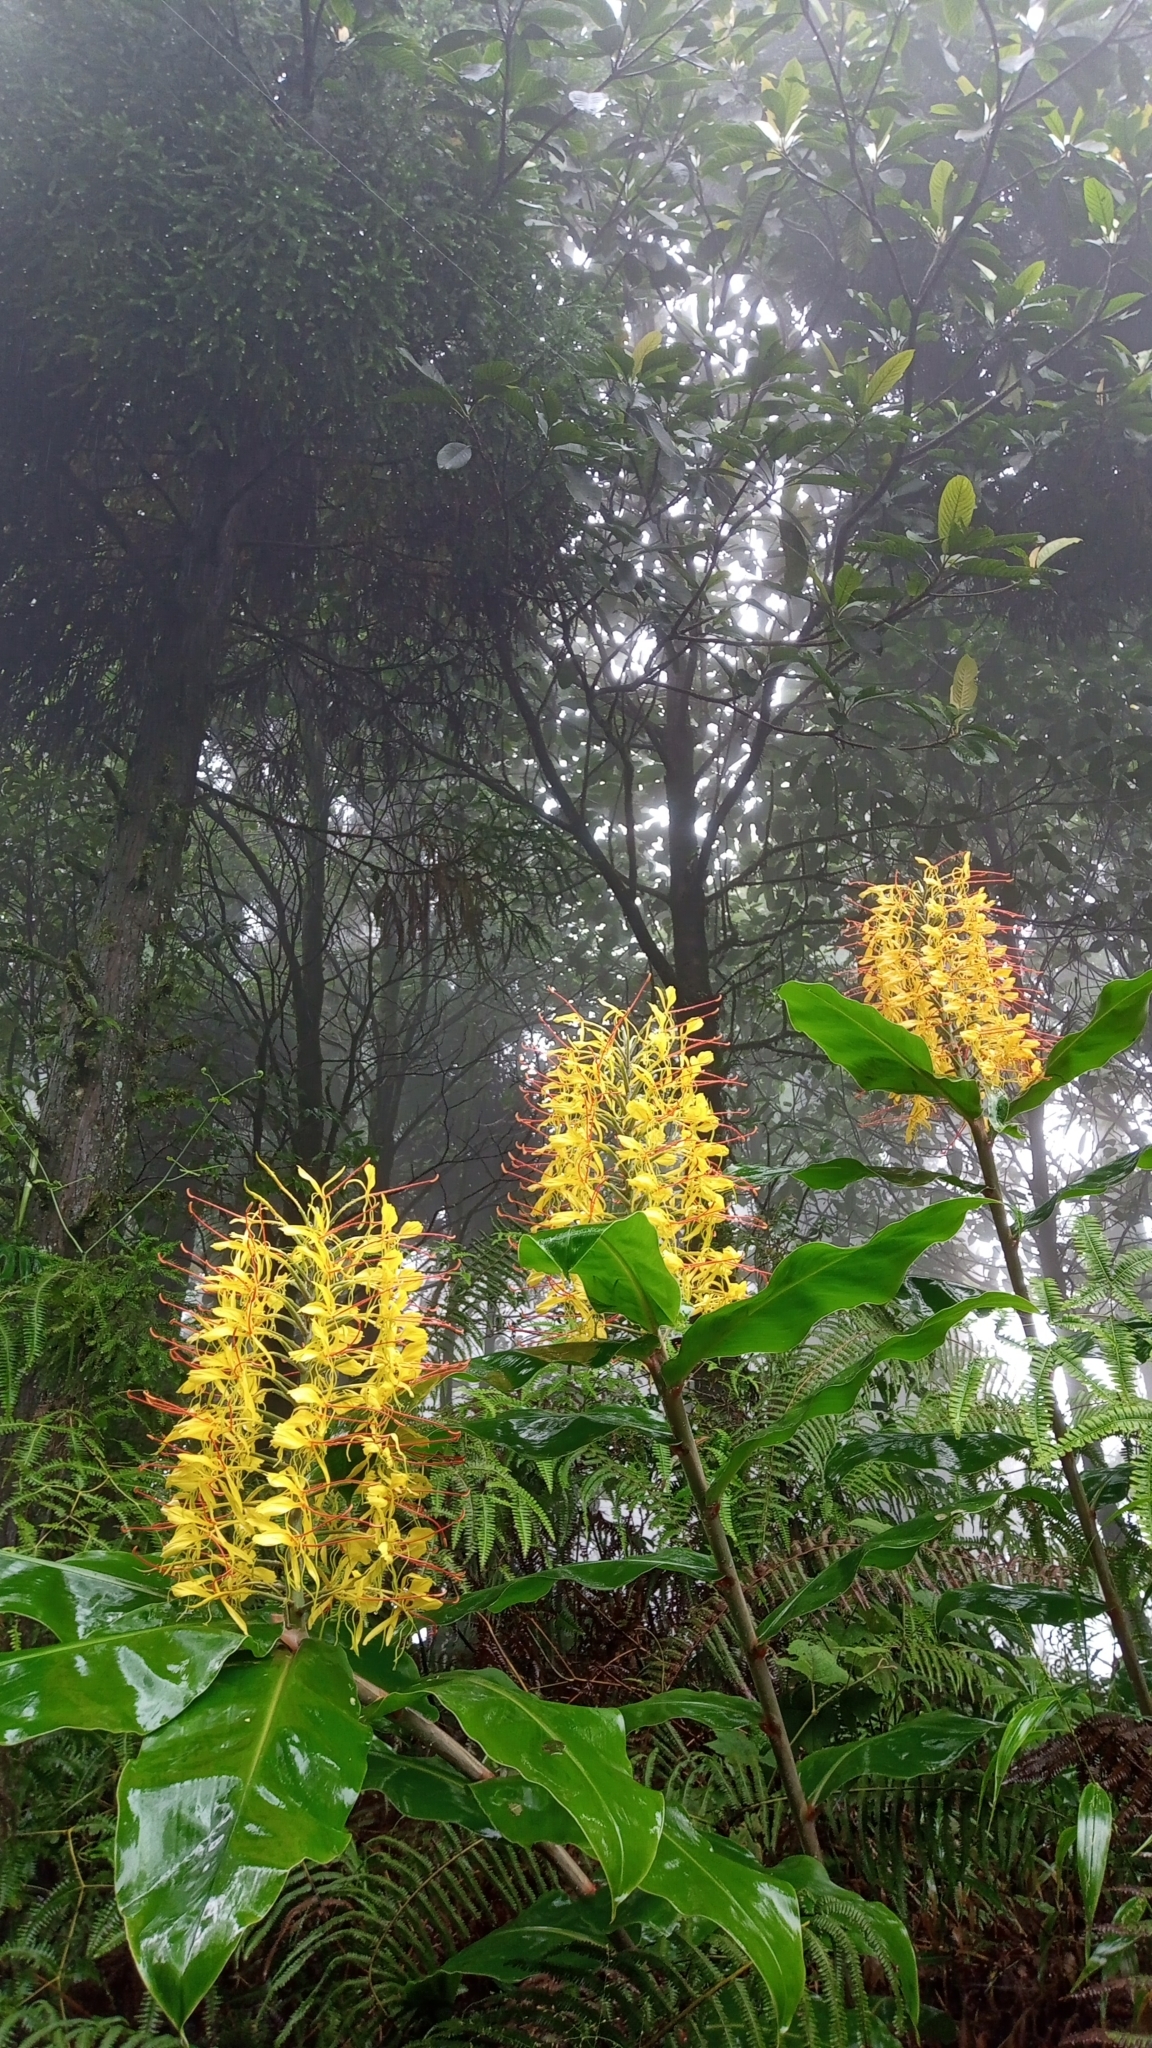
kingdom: Plantae
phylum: Tracheophyta
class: Liliopsida
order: Zingiberales
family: Zingiberaceae
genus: Hedychium
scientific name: Hedychium gardnerianum
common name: Himalayan ginger
